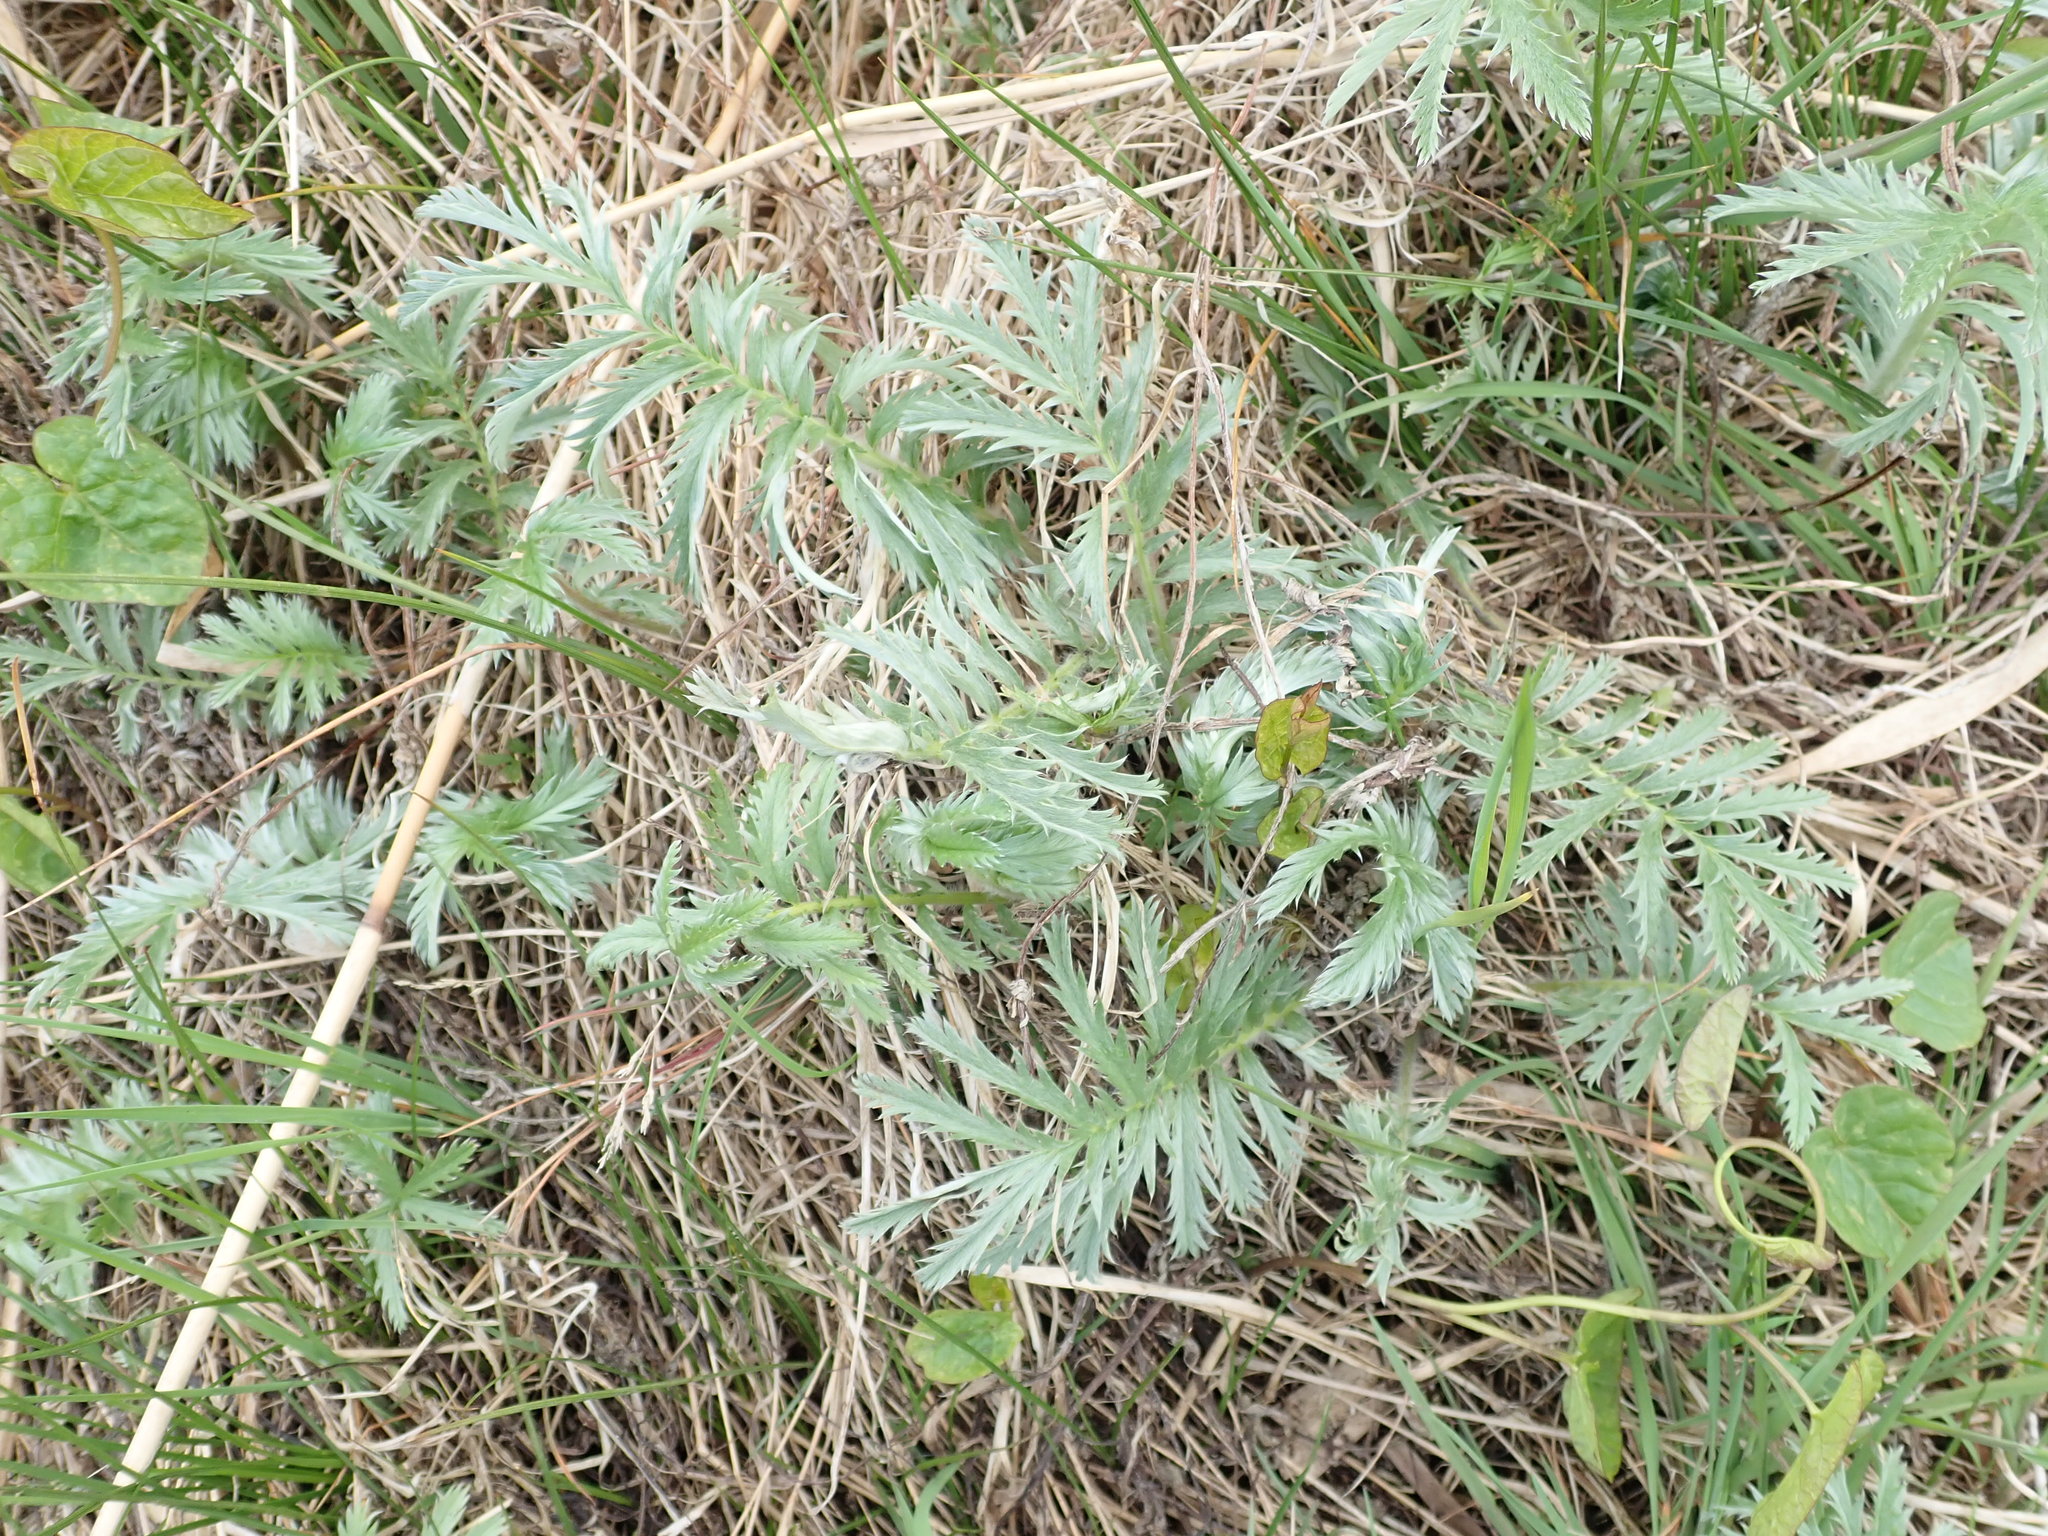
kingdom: Plantae
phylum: Tracheophyta
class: Magnoliopsida
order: Rosales
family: Rosaceae
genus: Argentina
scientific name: Argentina anserina
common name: Common silverweed
